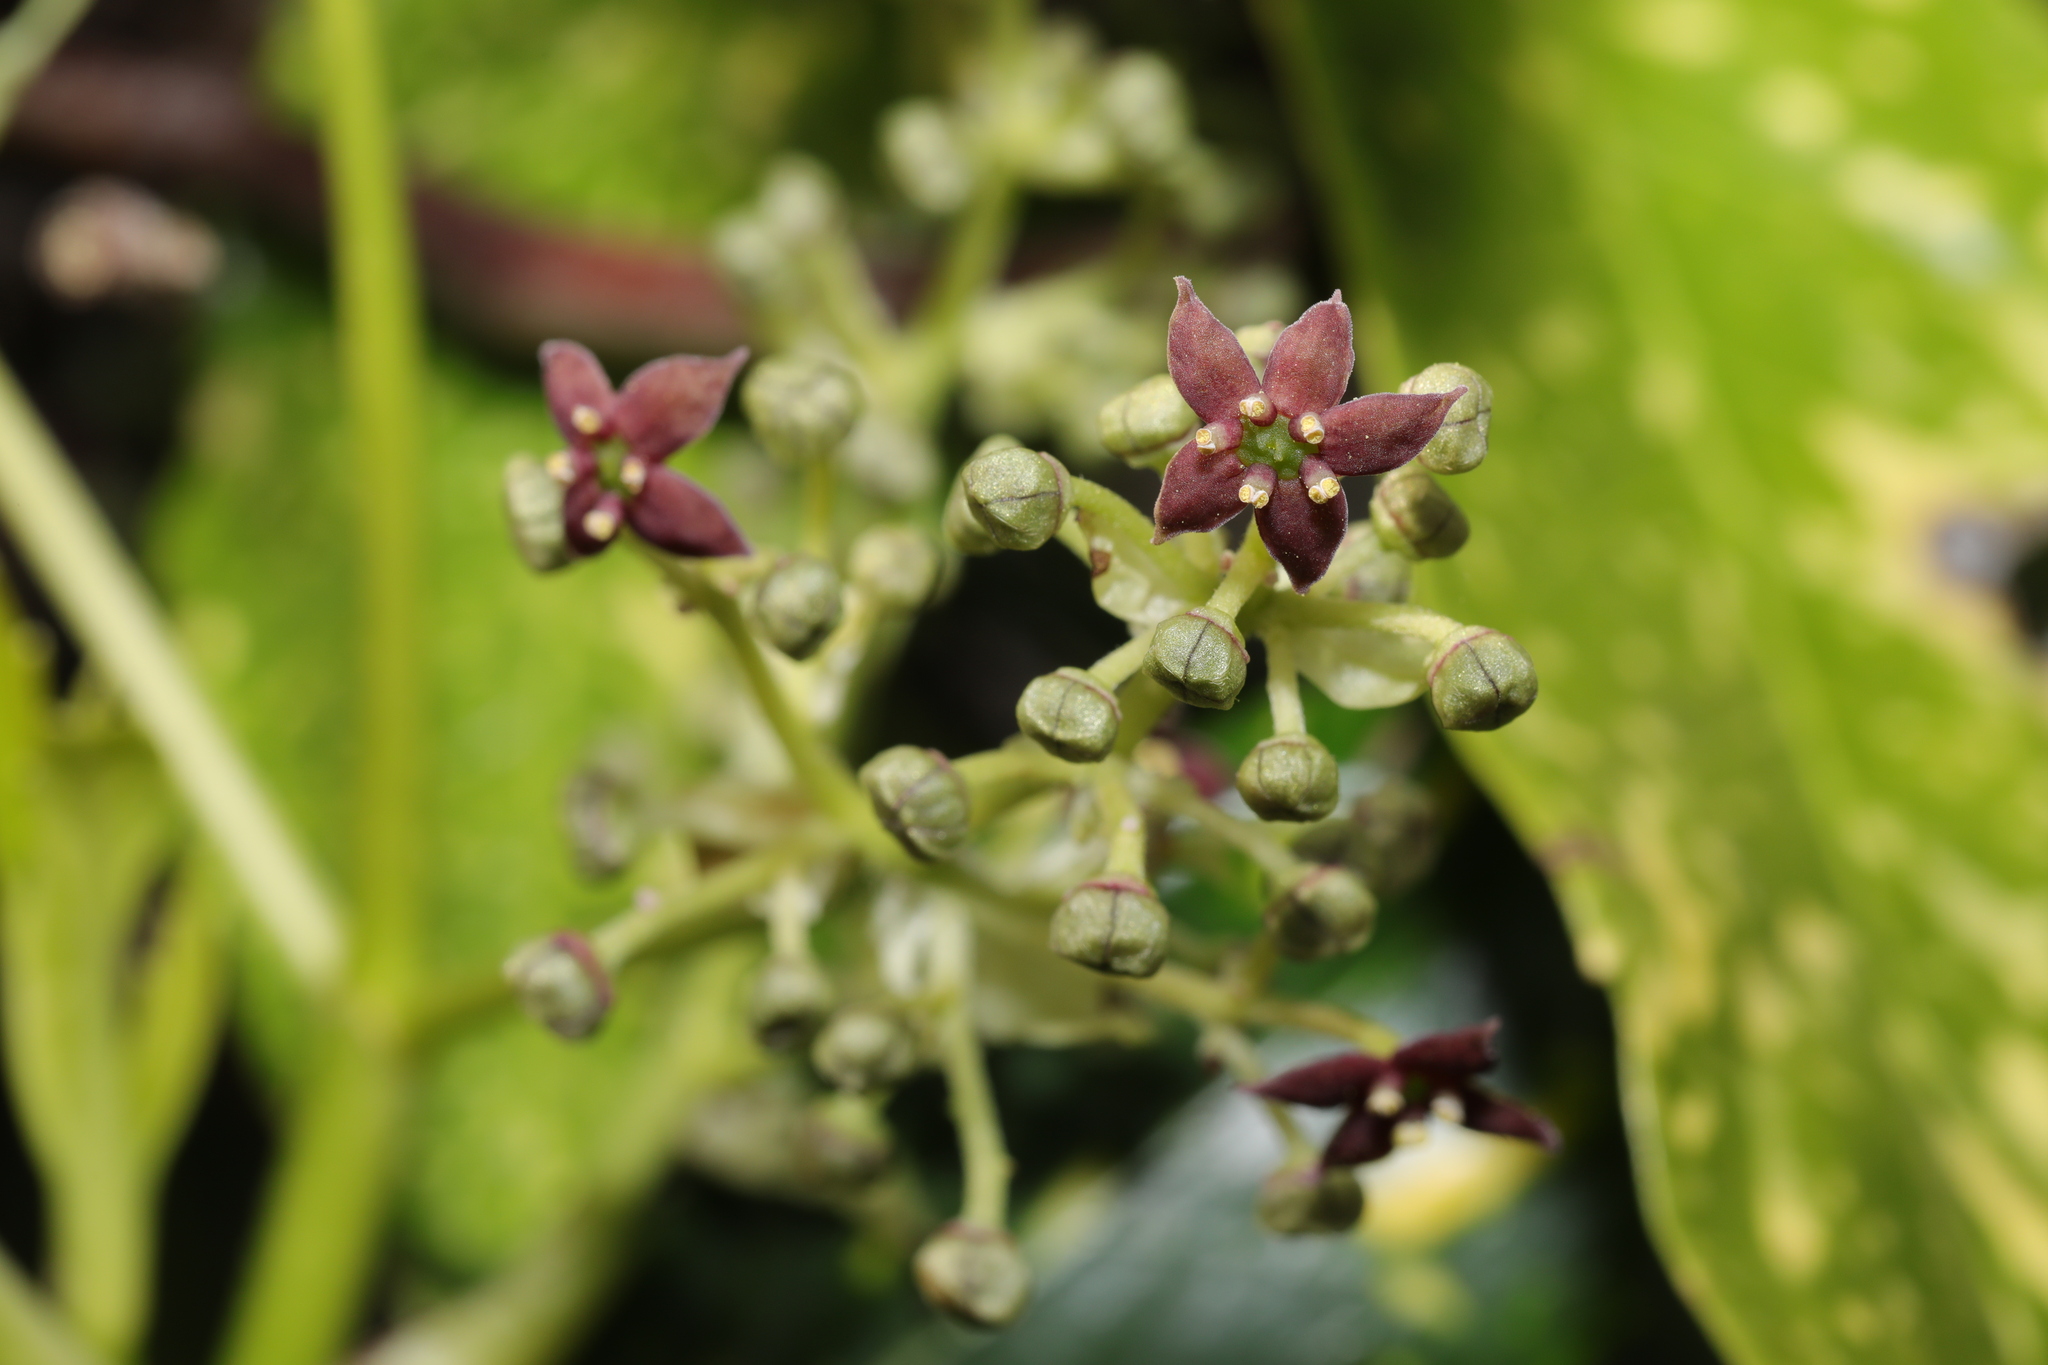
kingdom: Plantae
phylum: Tracheophyta
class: Magnoliopsida
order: Garryales
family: Garryaceae
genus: Aucuba
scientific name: Aucuba japonica
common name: Spotted-laurel
